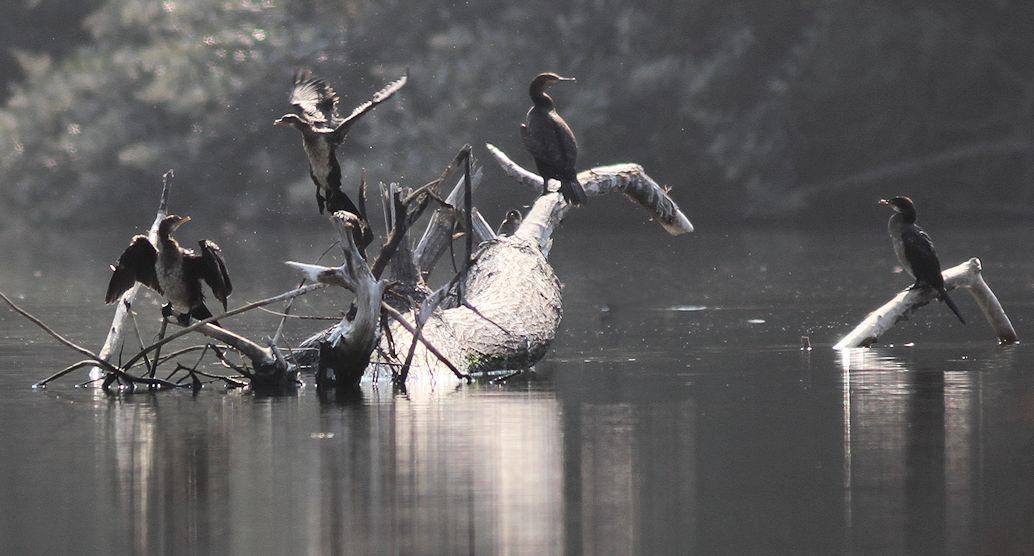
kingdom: Animalia
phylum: Chordata
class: Aves
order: Suliformes
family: Phalacrocoracidae
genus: Microcarbo
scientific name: Microcarbo africanus
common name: Long-tailed cormorant
